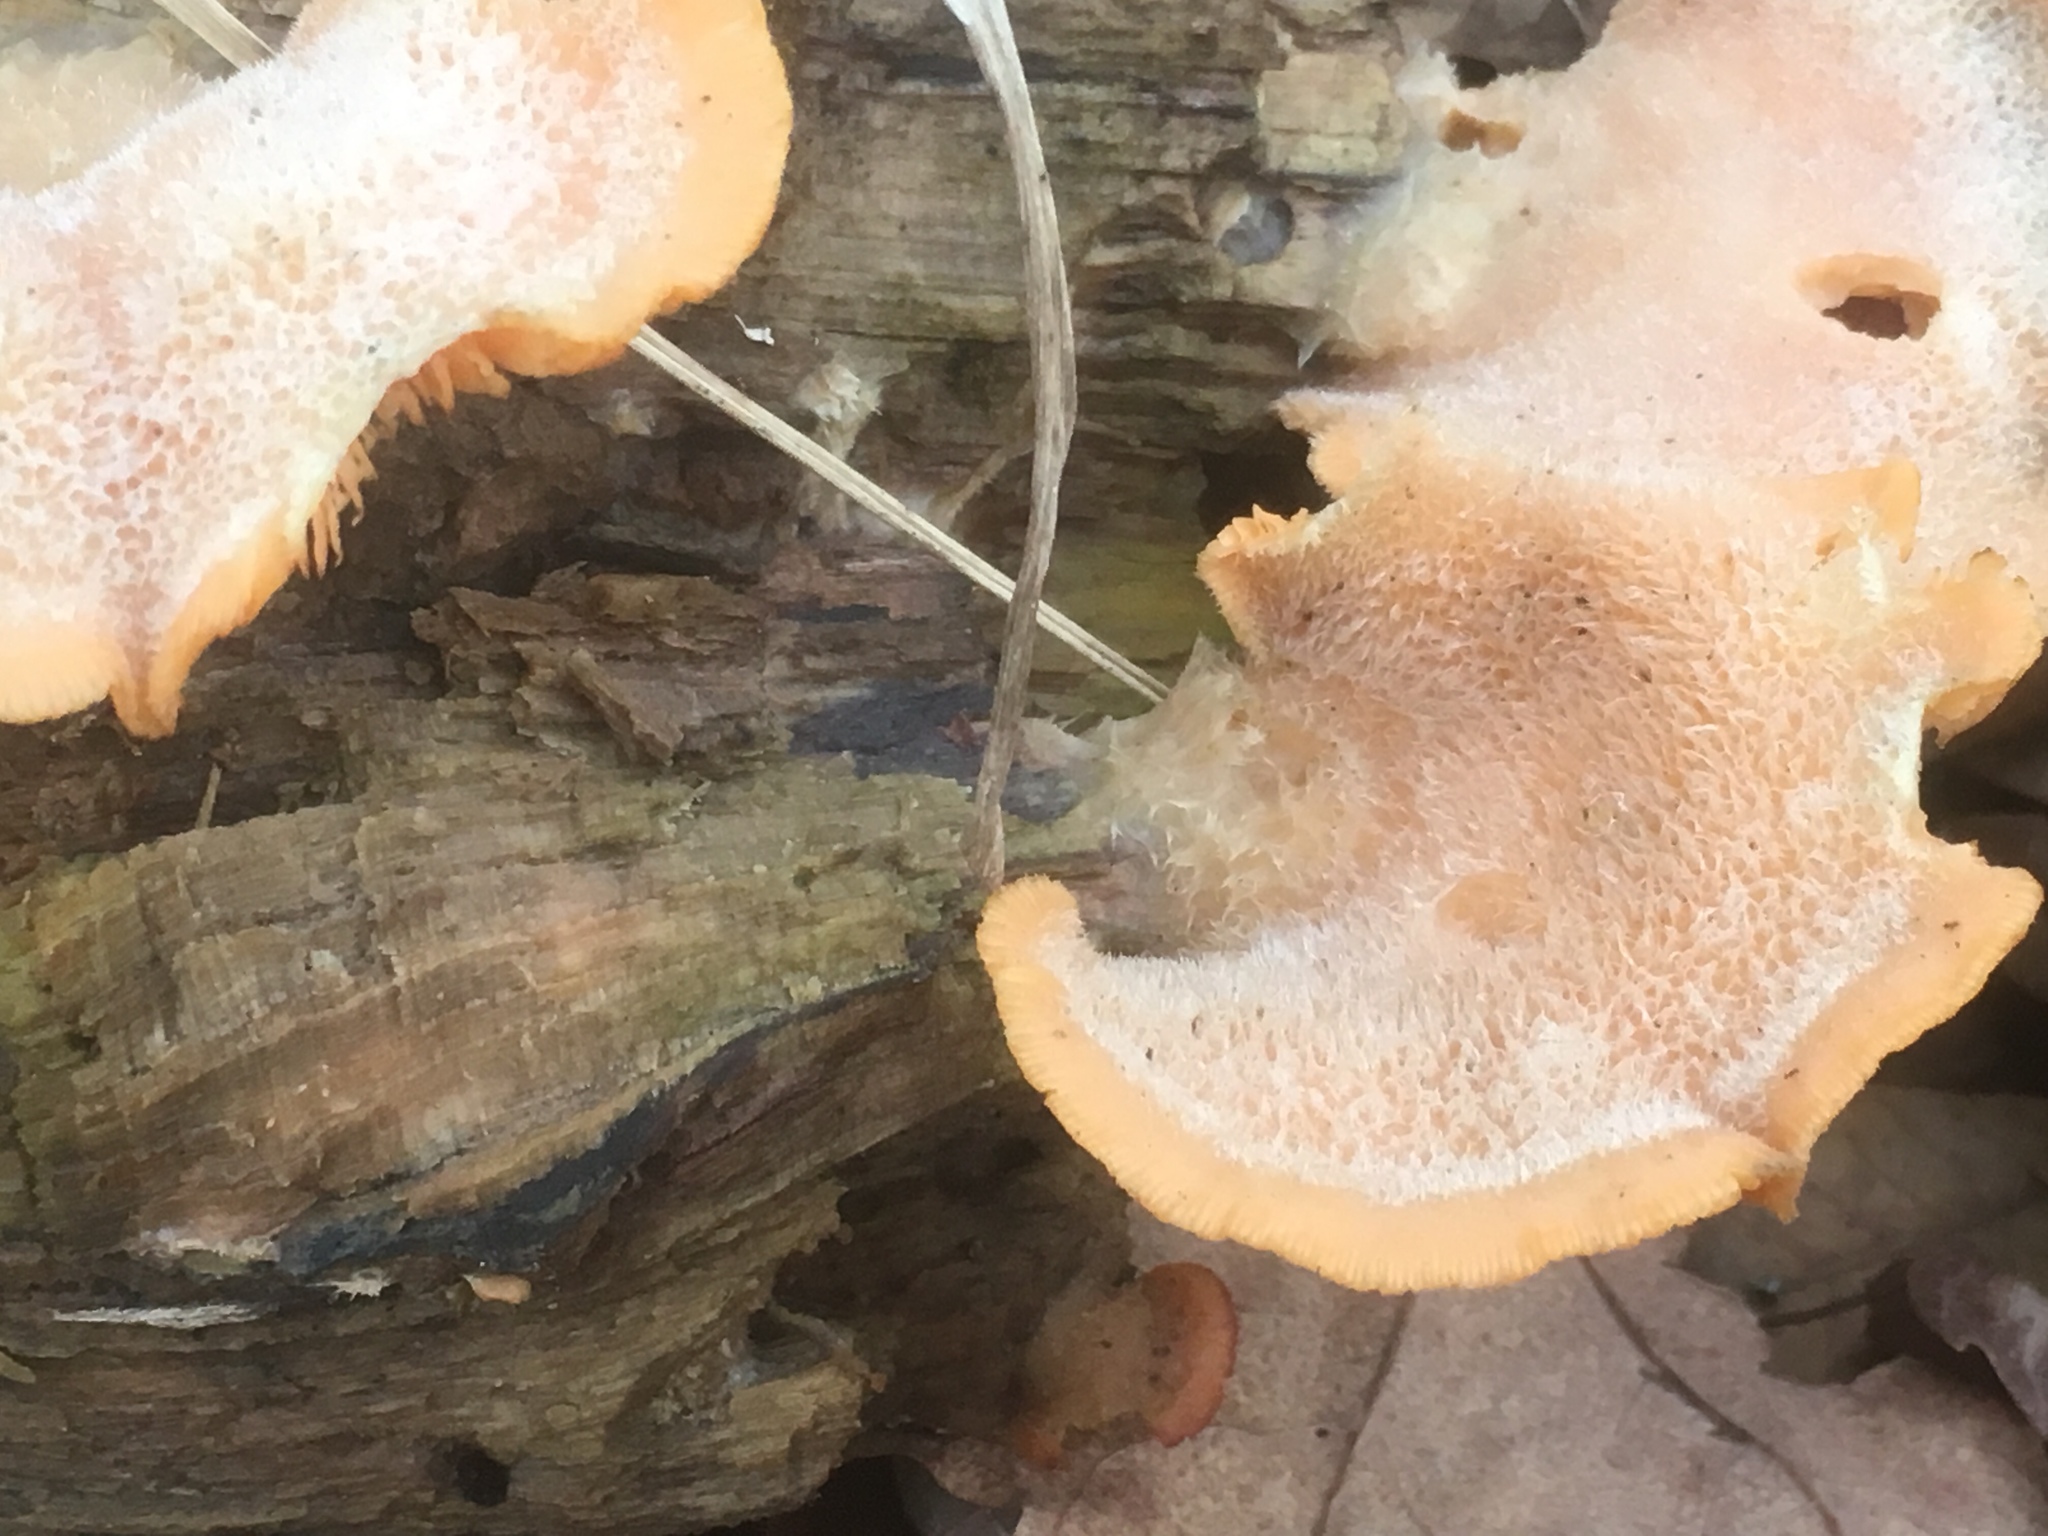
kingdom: Fungi
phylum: Basidiomycota
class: Agaricomycetes
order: Agaricales
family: Phyllotopsidaceae
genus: Phyllotopsis
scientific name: Phyllotopsis nidulans
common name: Orange mock oyster
